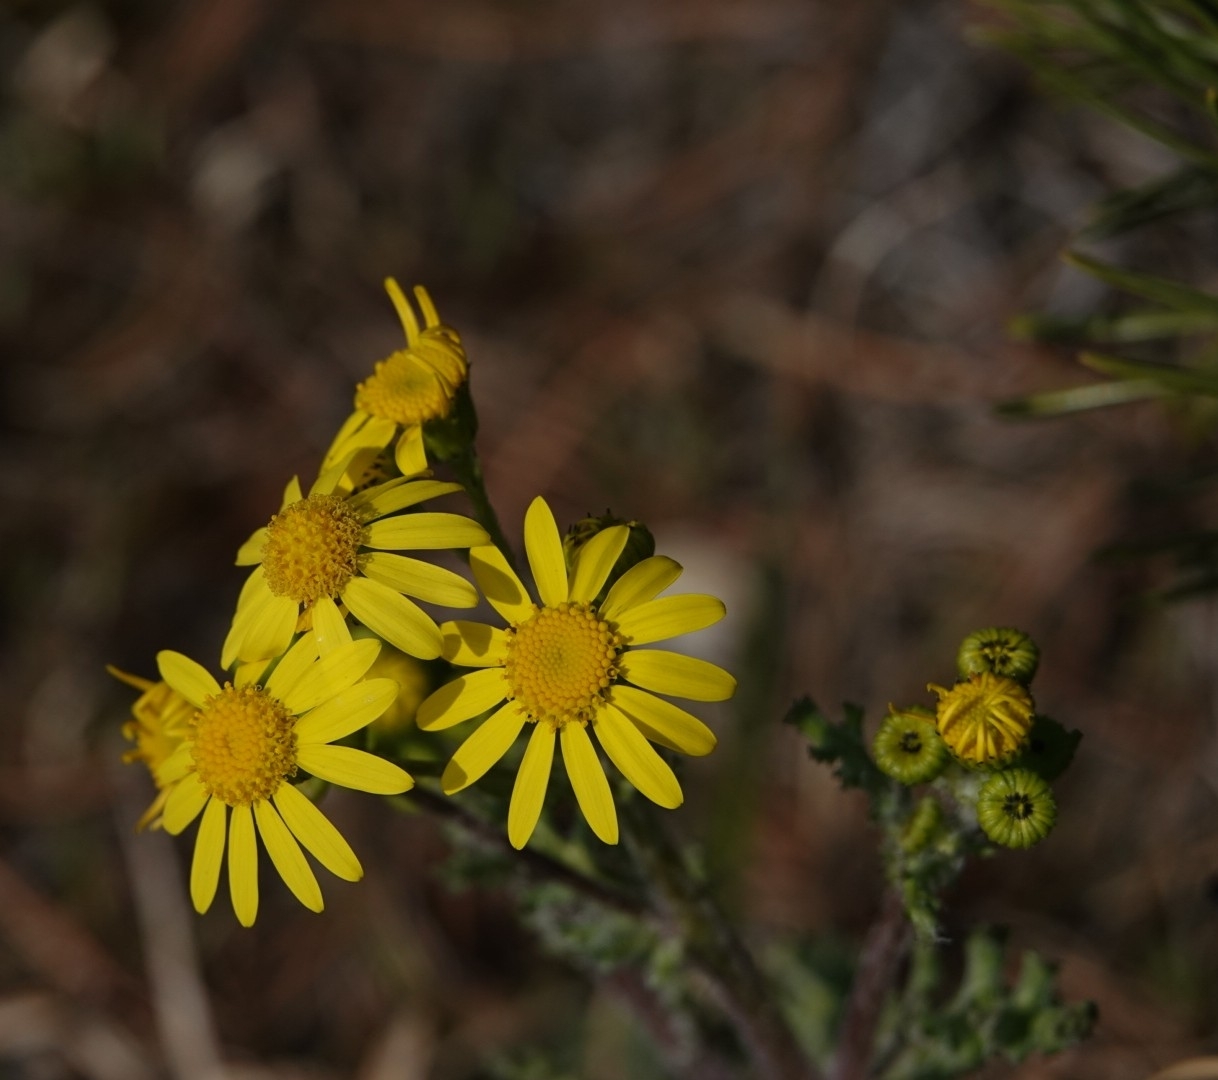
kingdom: Plantae
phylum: Tracheophyta
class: Magnoliopsida
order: Asterales
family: Asteraceae
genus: Senecio
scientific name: Senecio vernalis
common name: Eastern groundsel
